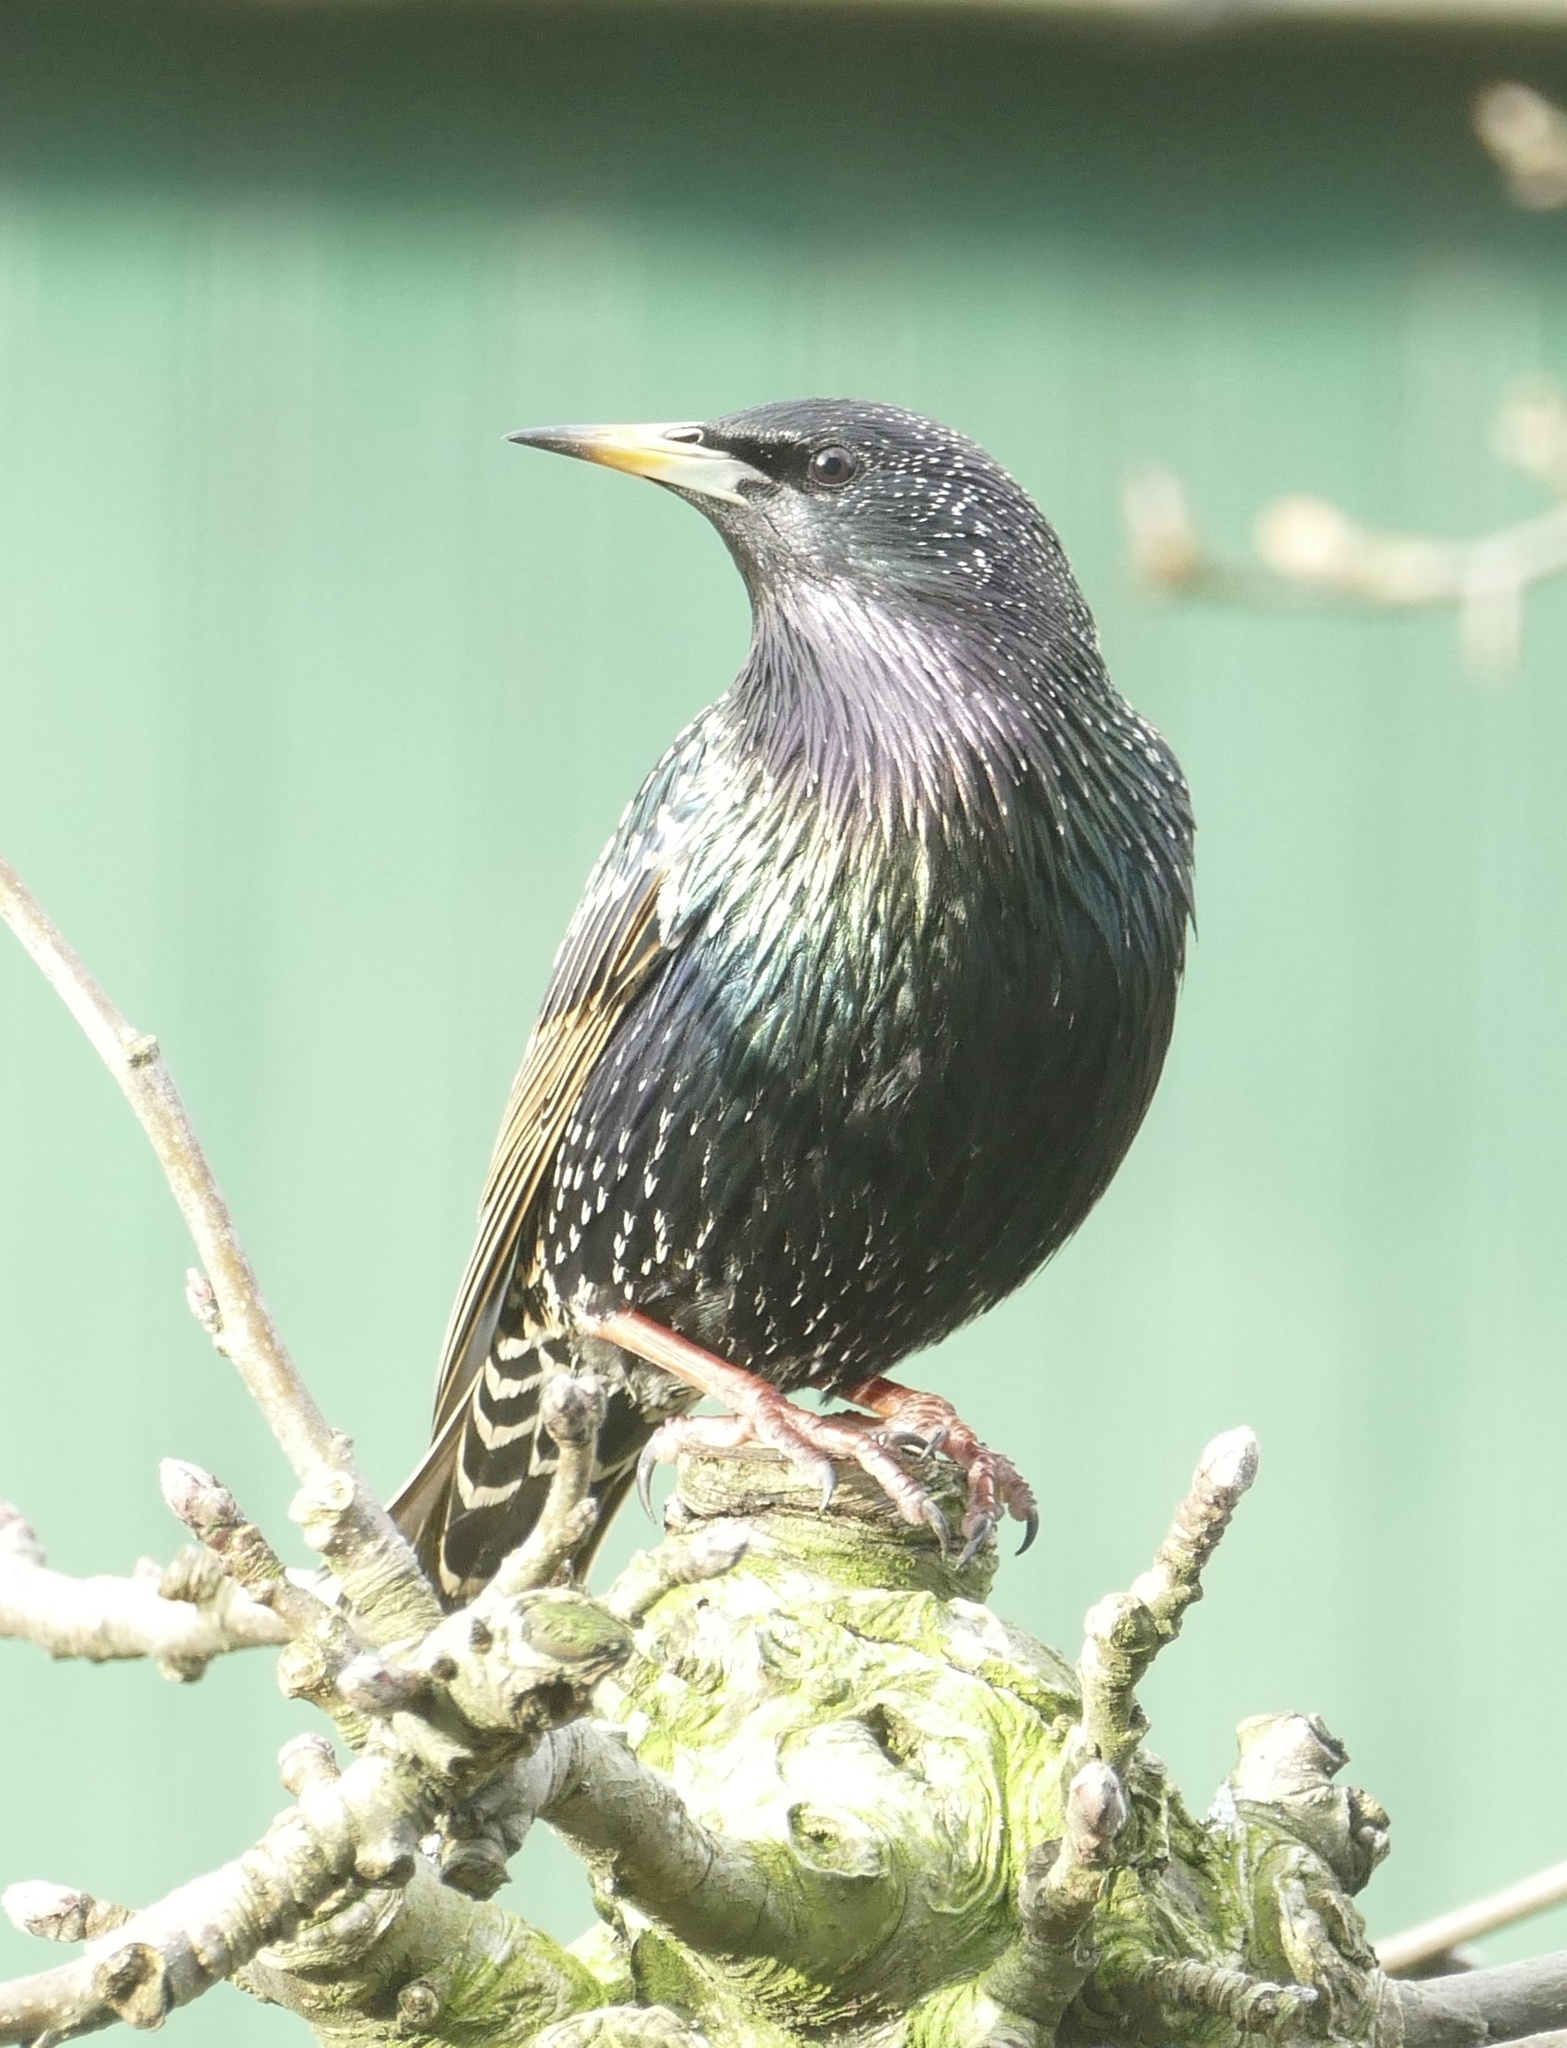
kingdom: Animalia
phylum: Chordata
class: Aves
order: Passeriformes
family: Sturnidae
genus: Sturnus
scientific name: Sturnus vulgaris
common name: Common starling
